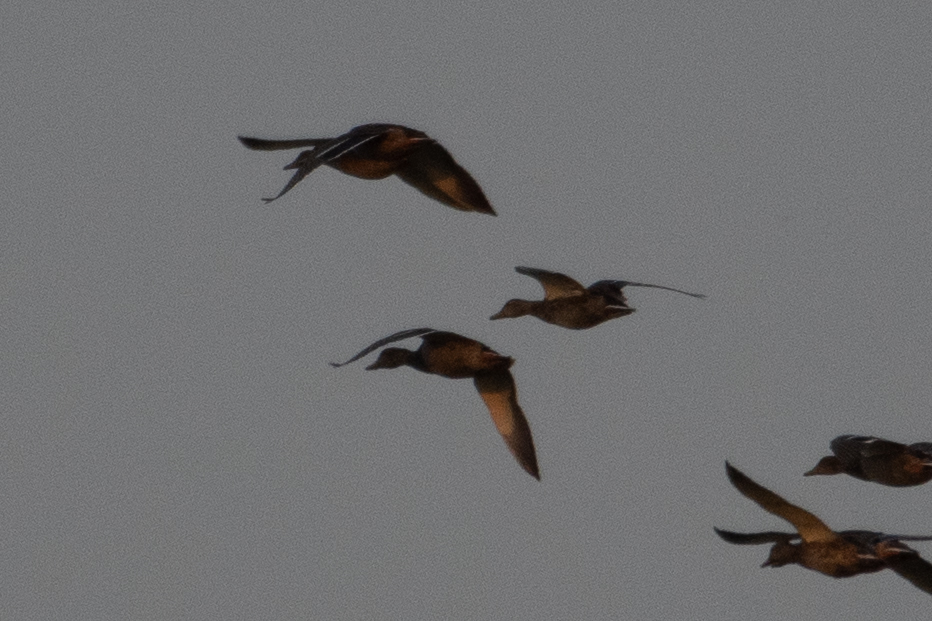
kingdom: Animalia
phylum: Chordata
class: Aves
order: Anseriformes
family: Anatidae
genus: Anas
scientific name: Anas platyrhynchos
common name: Mallard
